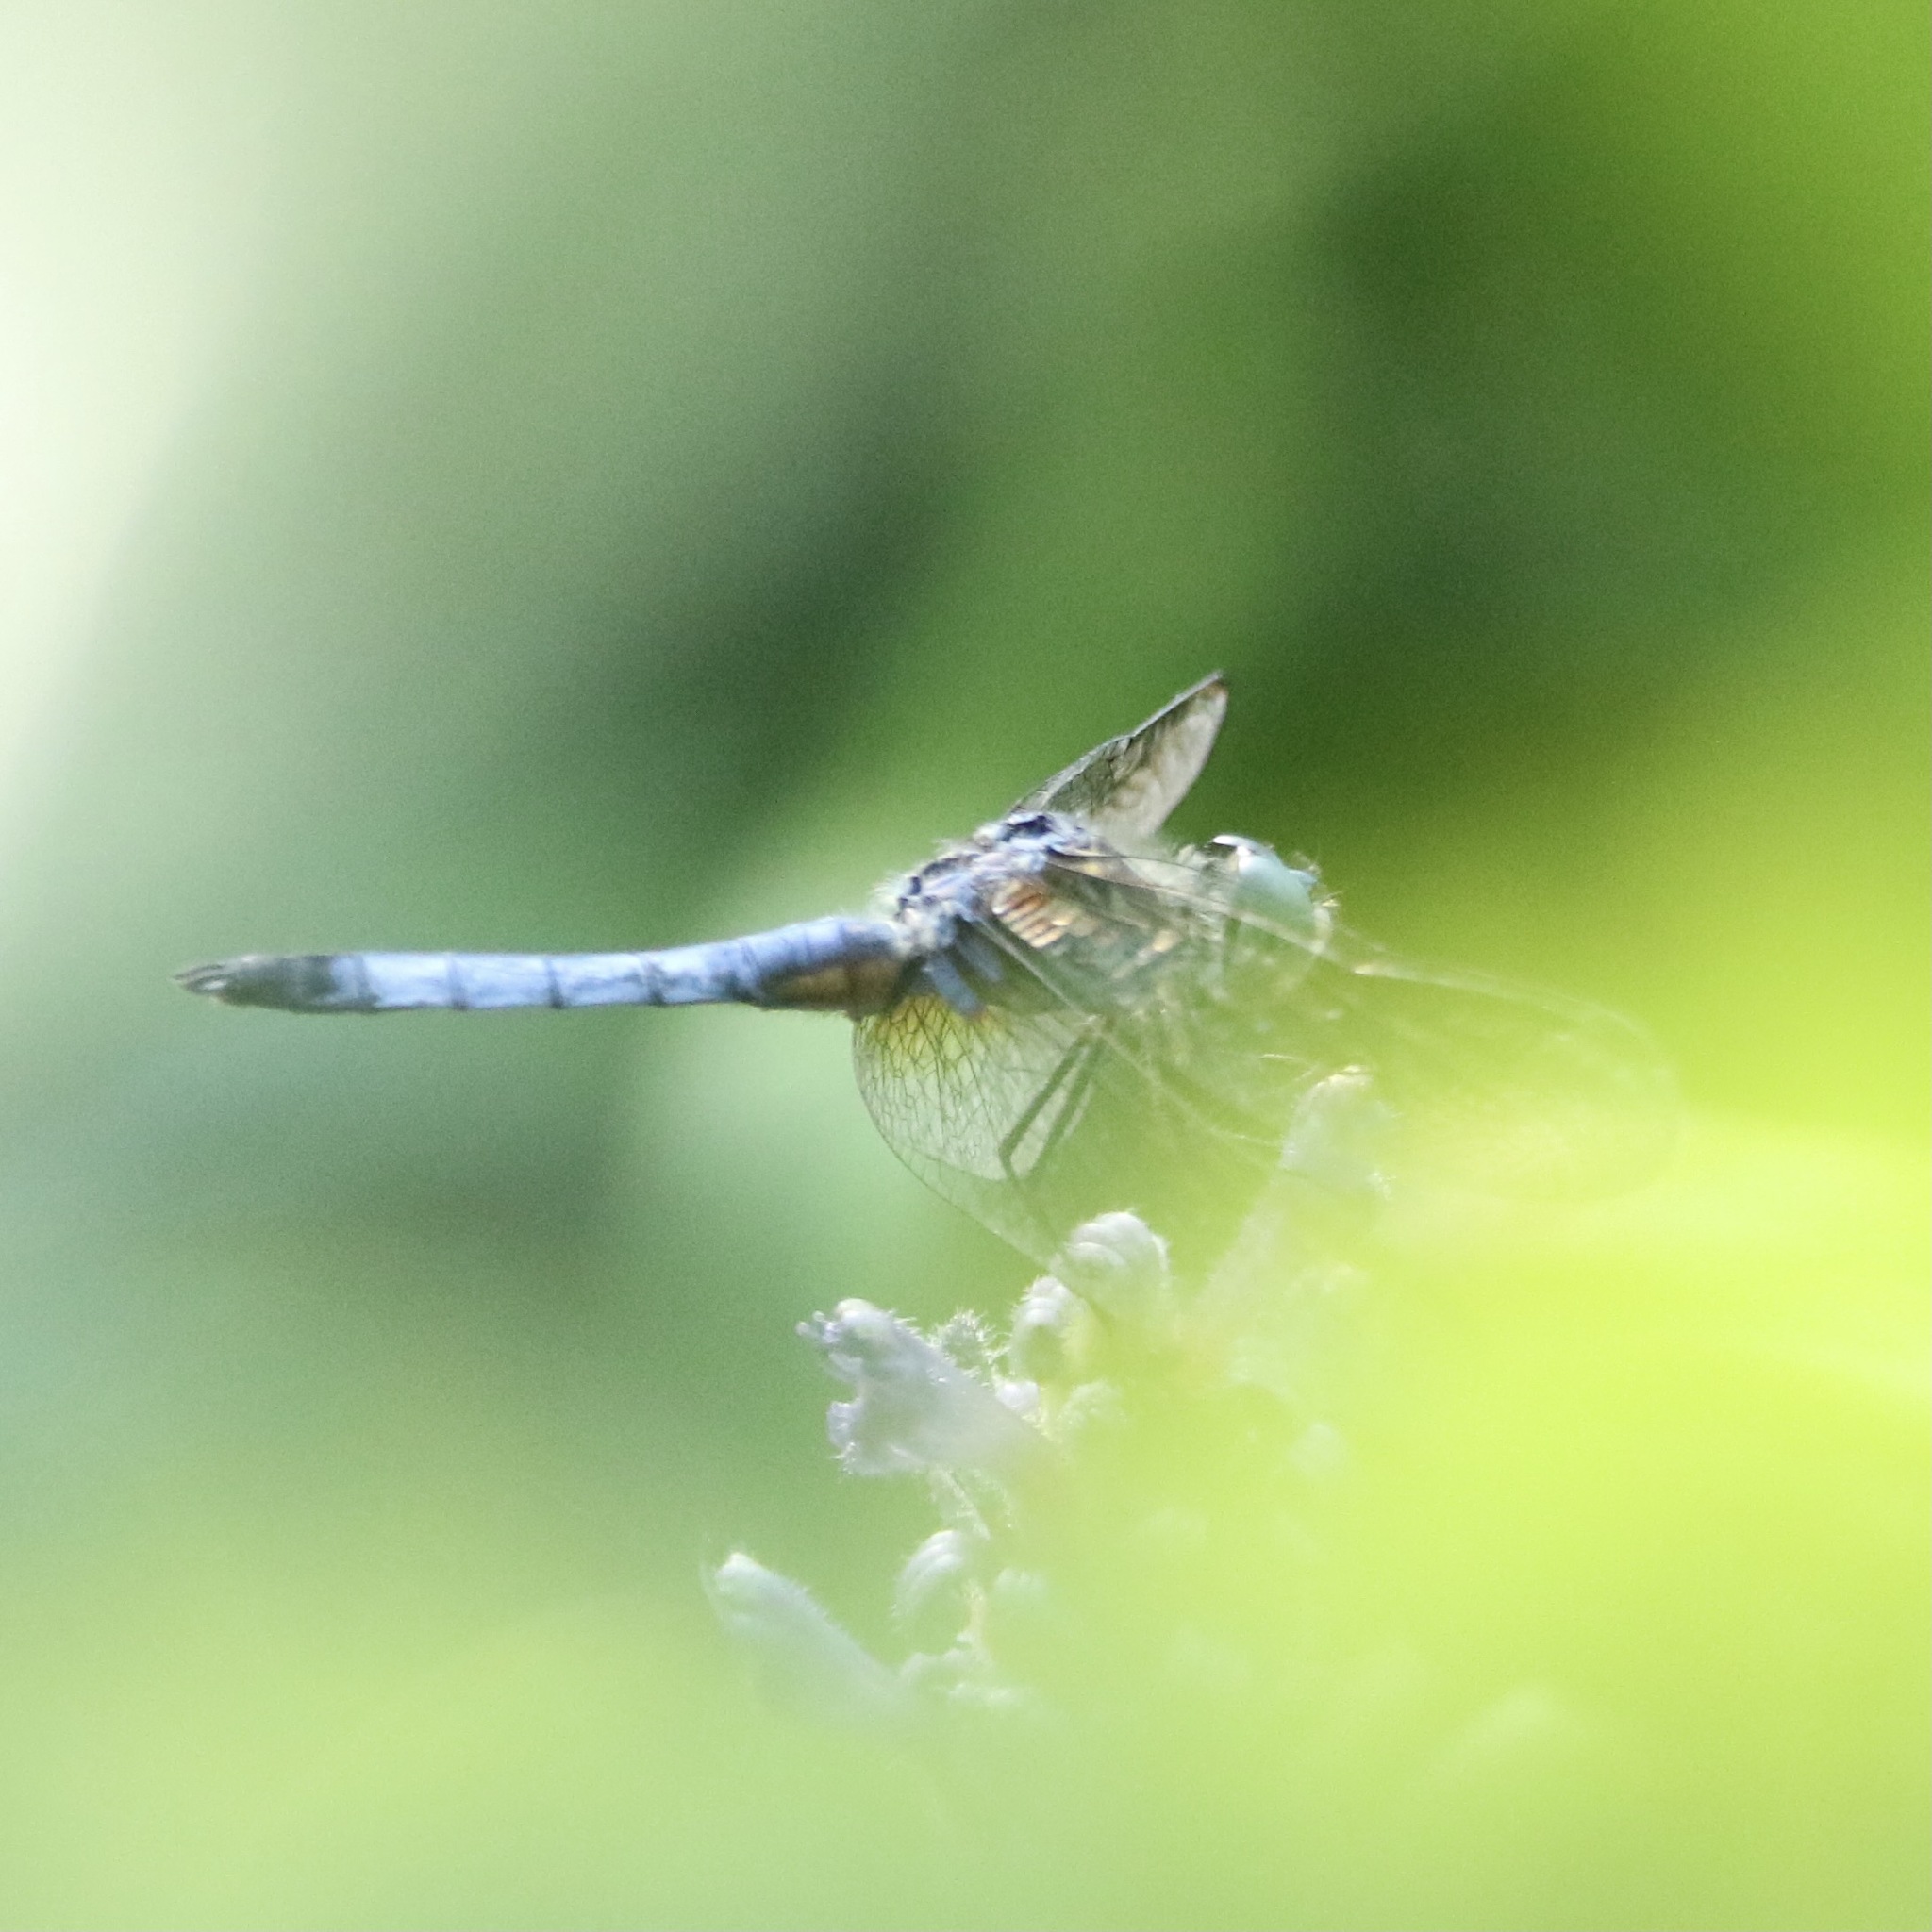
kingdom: Animalia
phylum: Arthropoda
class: Insecta
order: Odonata
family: Libellulidae
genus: Pachydiplax
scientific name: Pachydiplax longipennis
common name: Blue dasher
